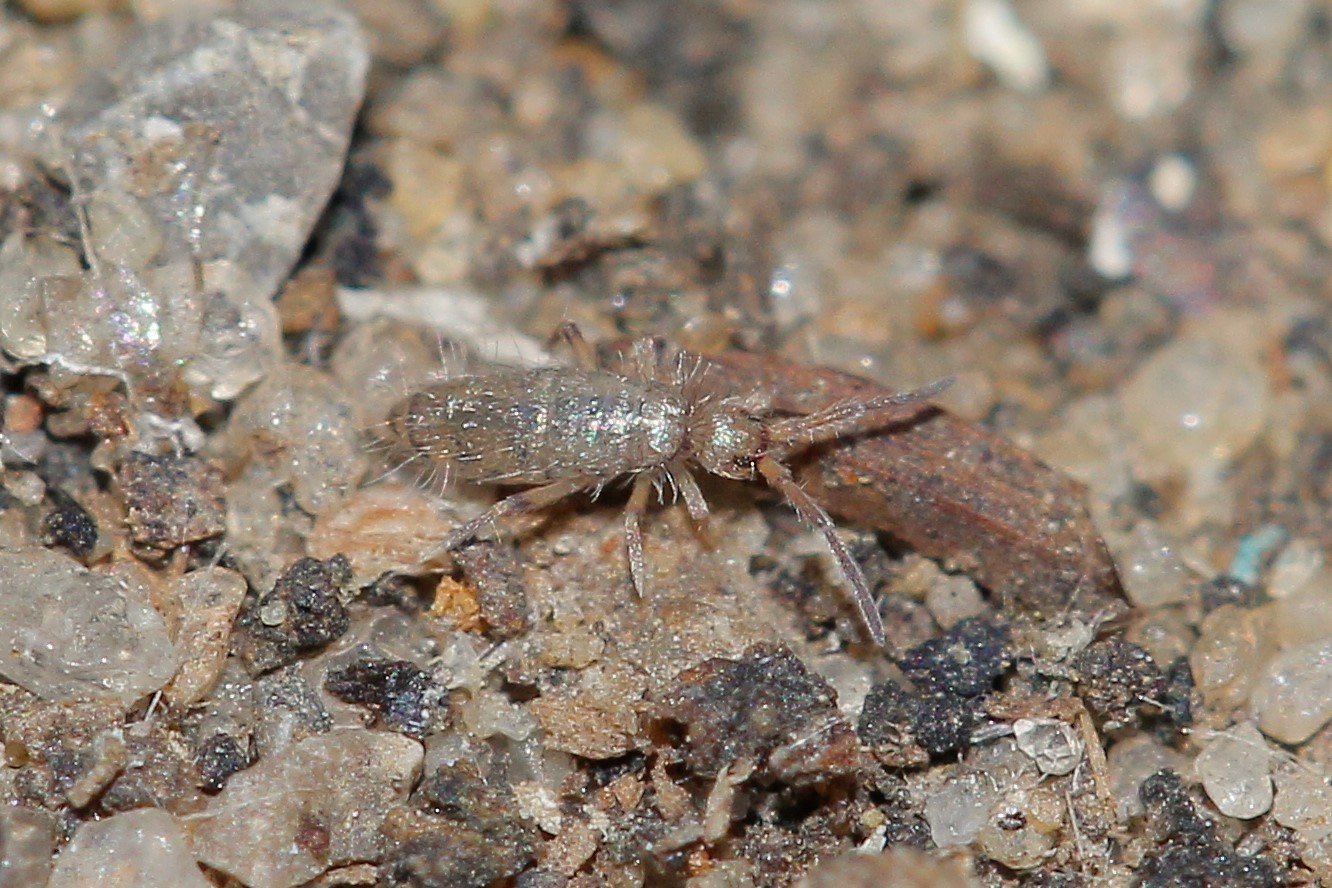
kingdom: Animalia
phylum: Arthropoda
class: Collembola
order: Entomobryomorpha
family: Entomobryidae
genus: Willowsia
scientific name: Willowsia nigromaculata
